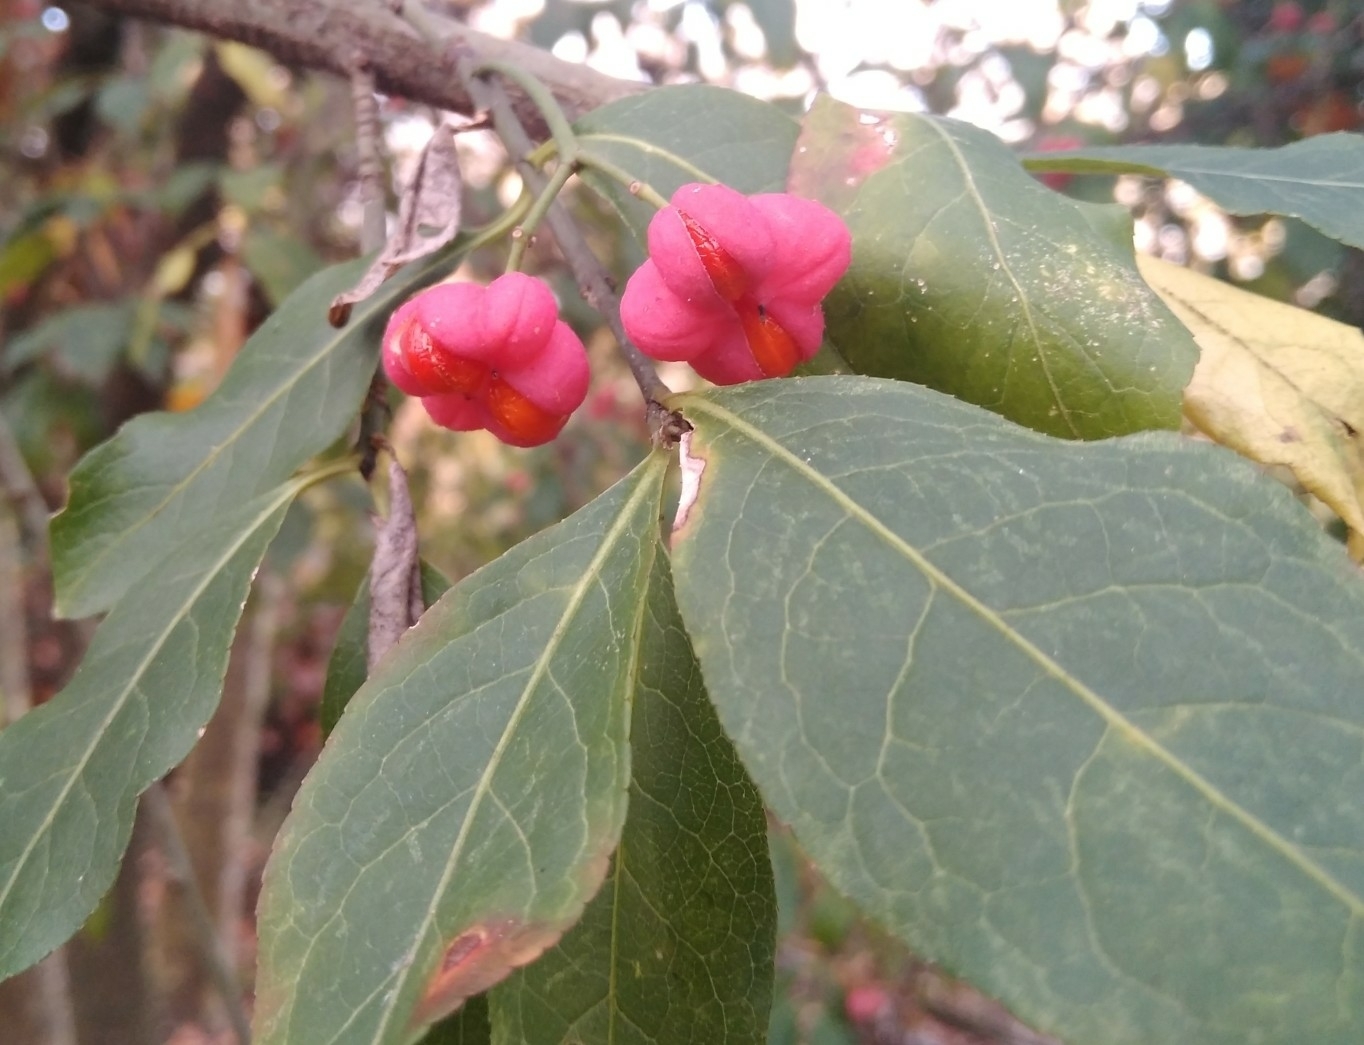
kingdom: Plantae
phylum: Tracheophyta
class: Magnoliopsida
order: Celastrales
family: Celastraceae
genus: Euonymus
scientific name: Euonymus europaeus
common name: Spindle
